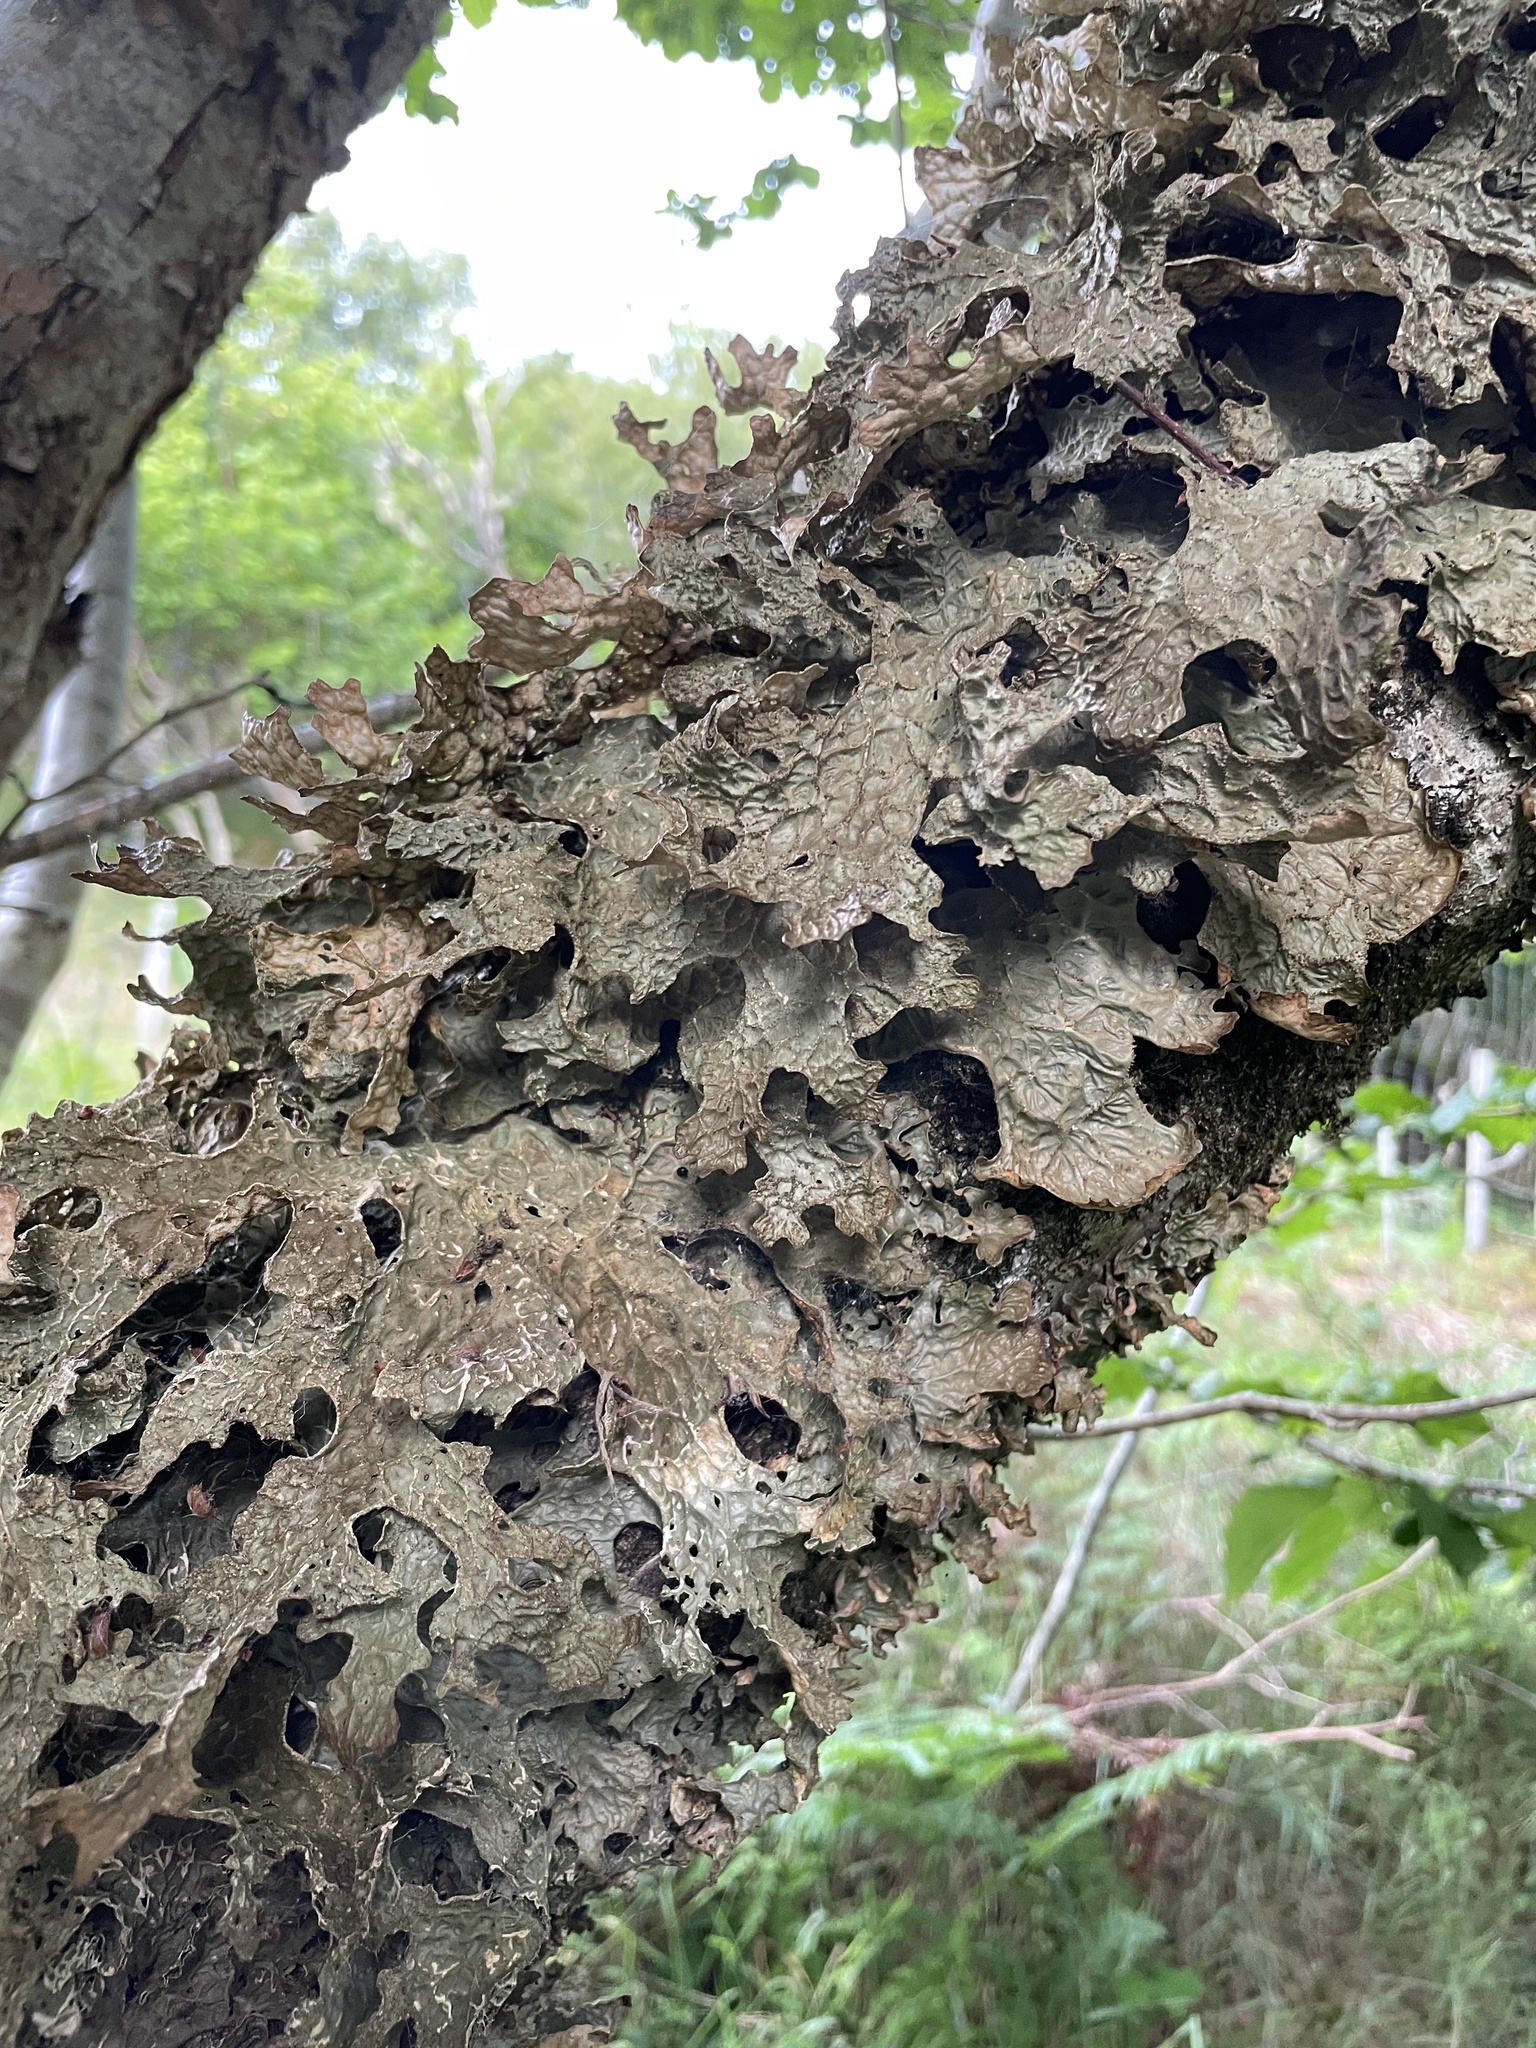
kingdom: Fungi
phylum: Ascomycota
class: Lecanoromycetes
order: Peltigerales
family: Lobariaceae
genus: Lobaria
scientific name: Lobaria pulmonaria
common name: Lungwort
